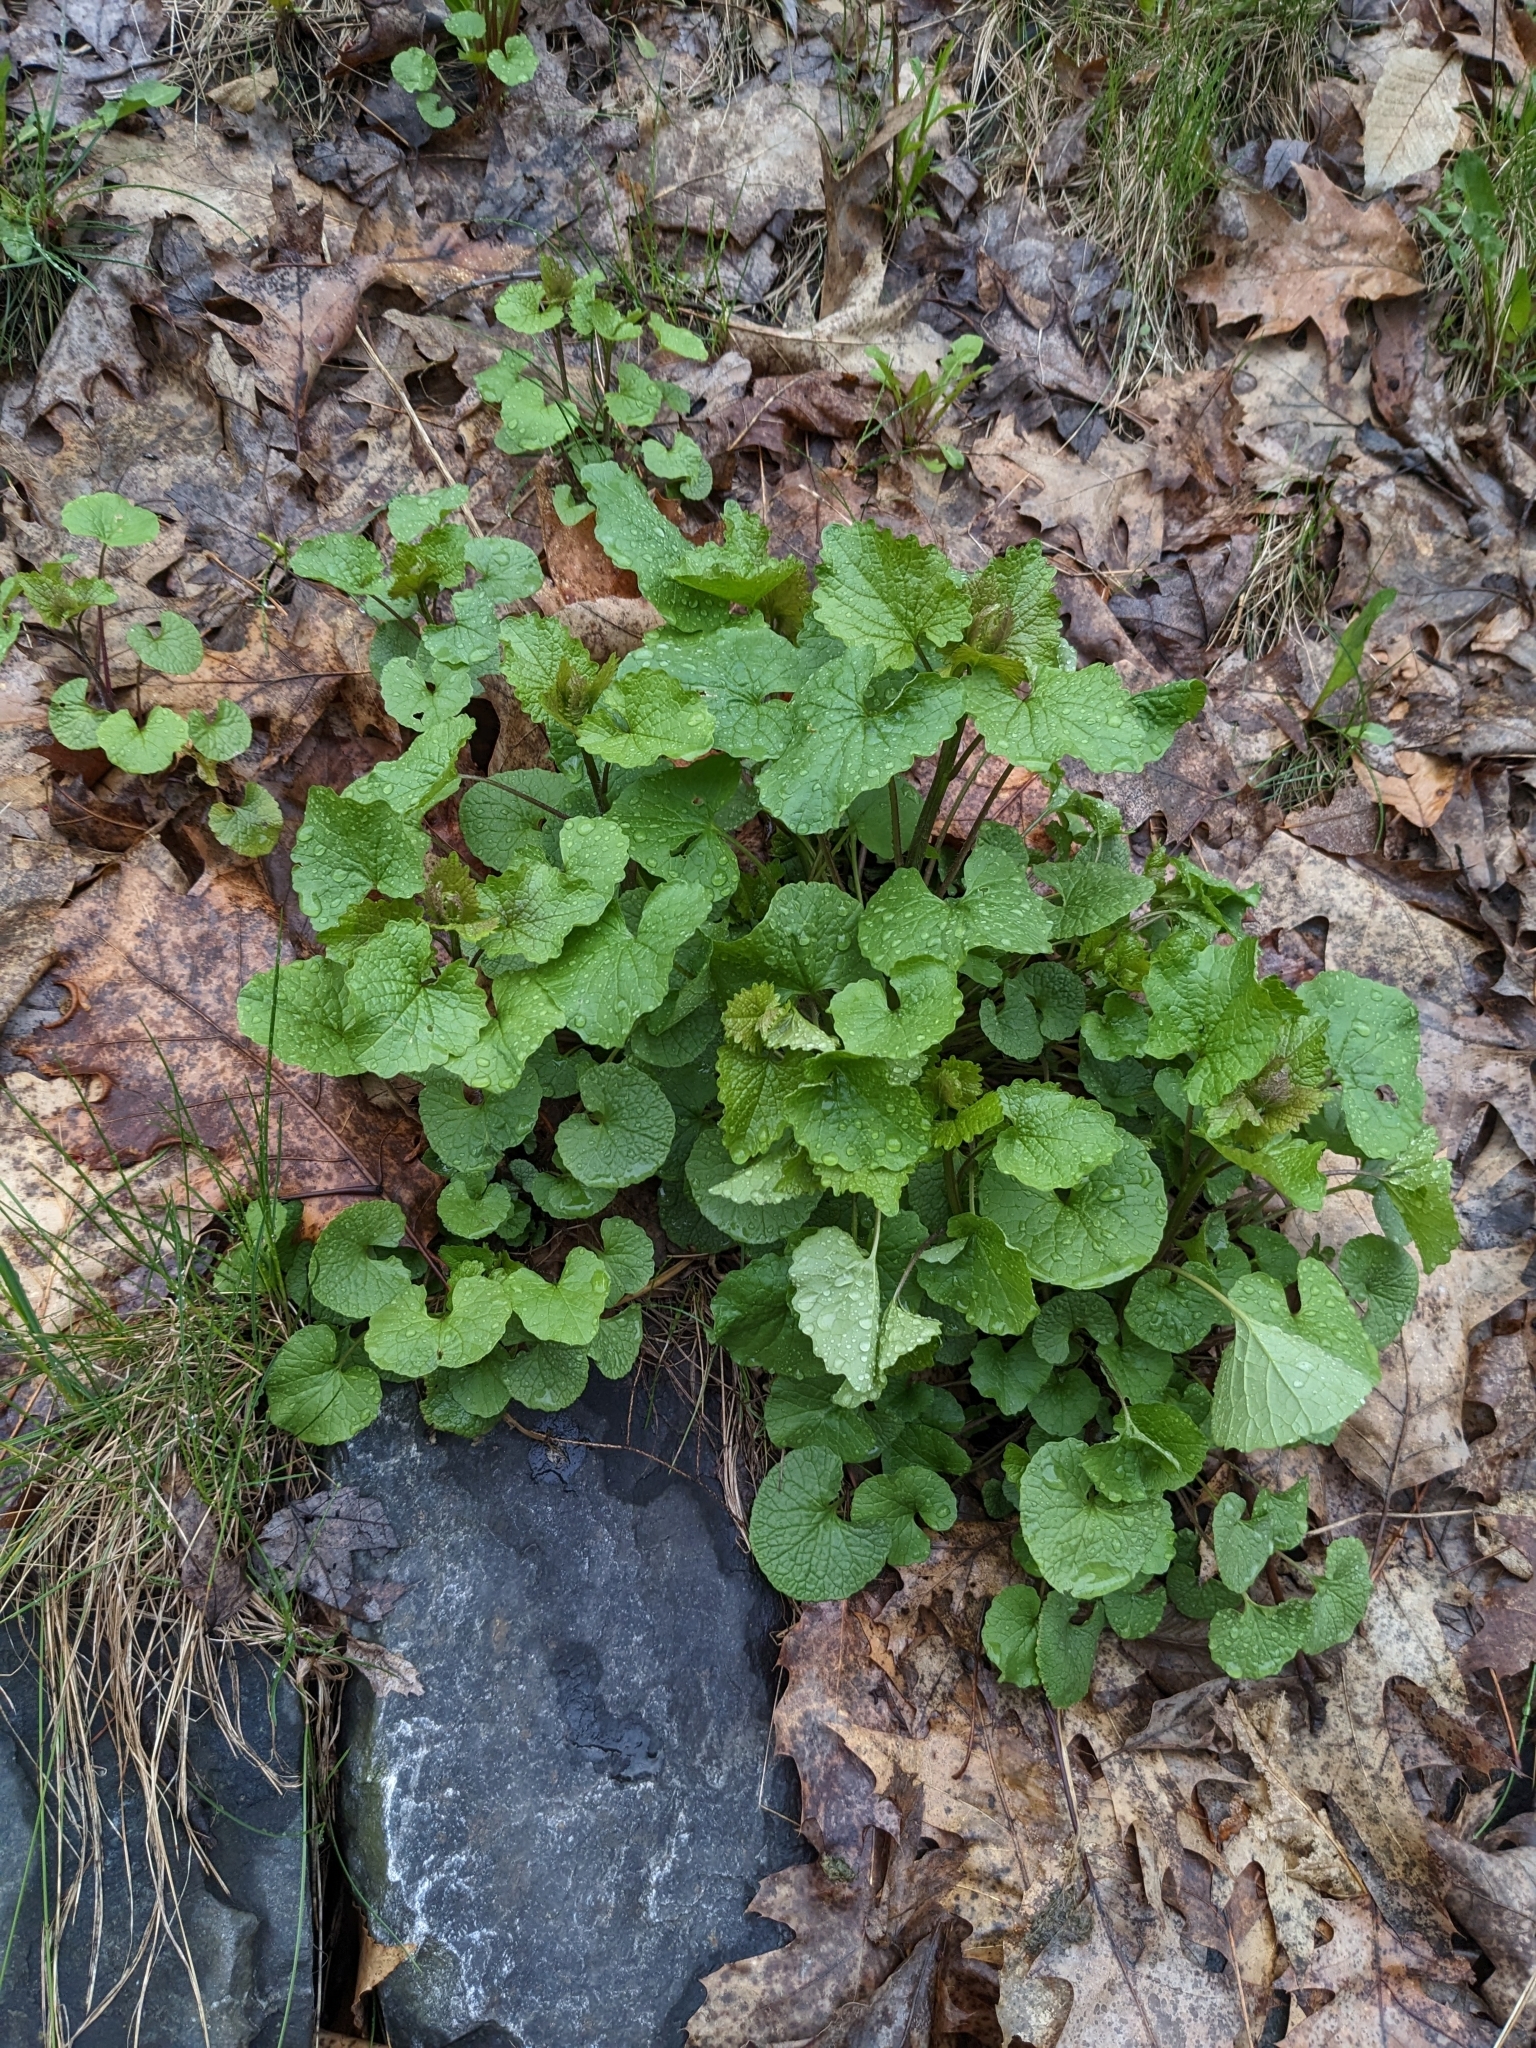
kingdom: Plantae
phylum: Tracheophyta
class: Magnoliopsida
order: Brassicales
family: Brassicaceae
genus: Alliaria
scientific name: Alliaria petiolata
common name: Garlic mustard
